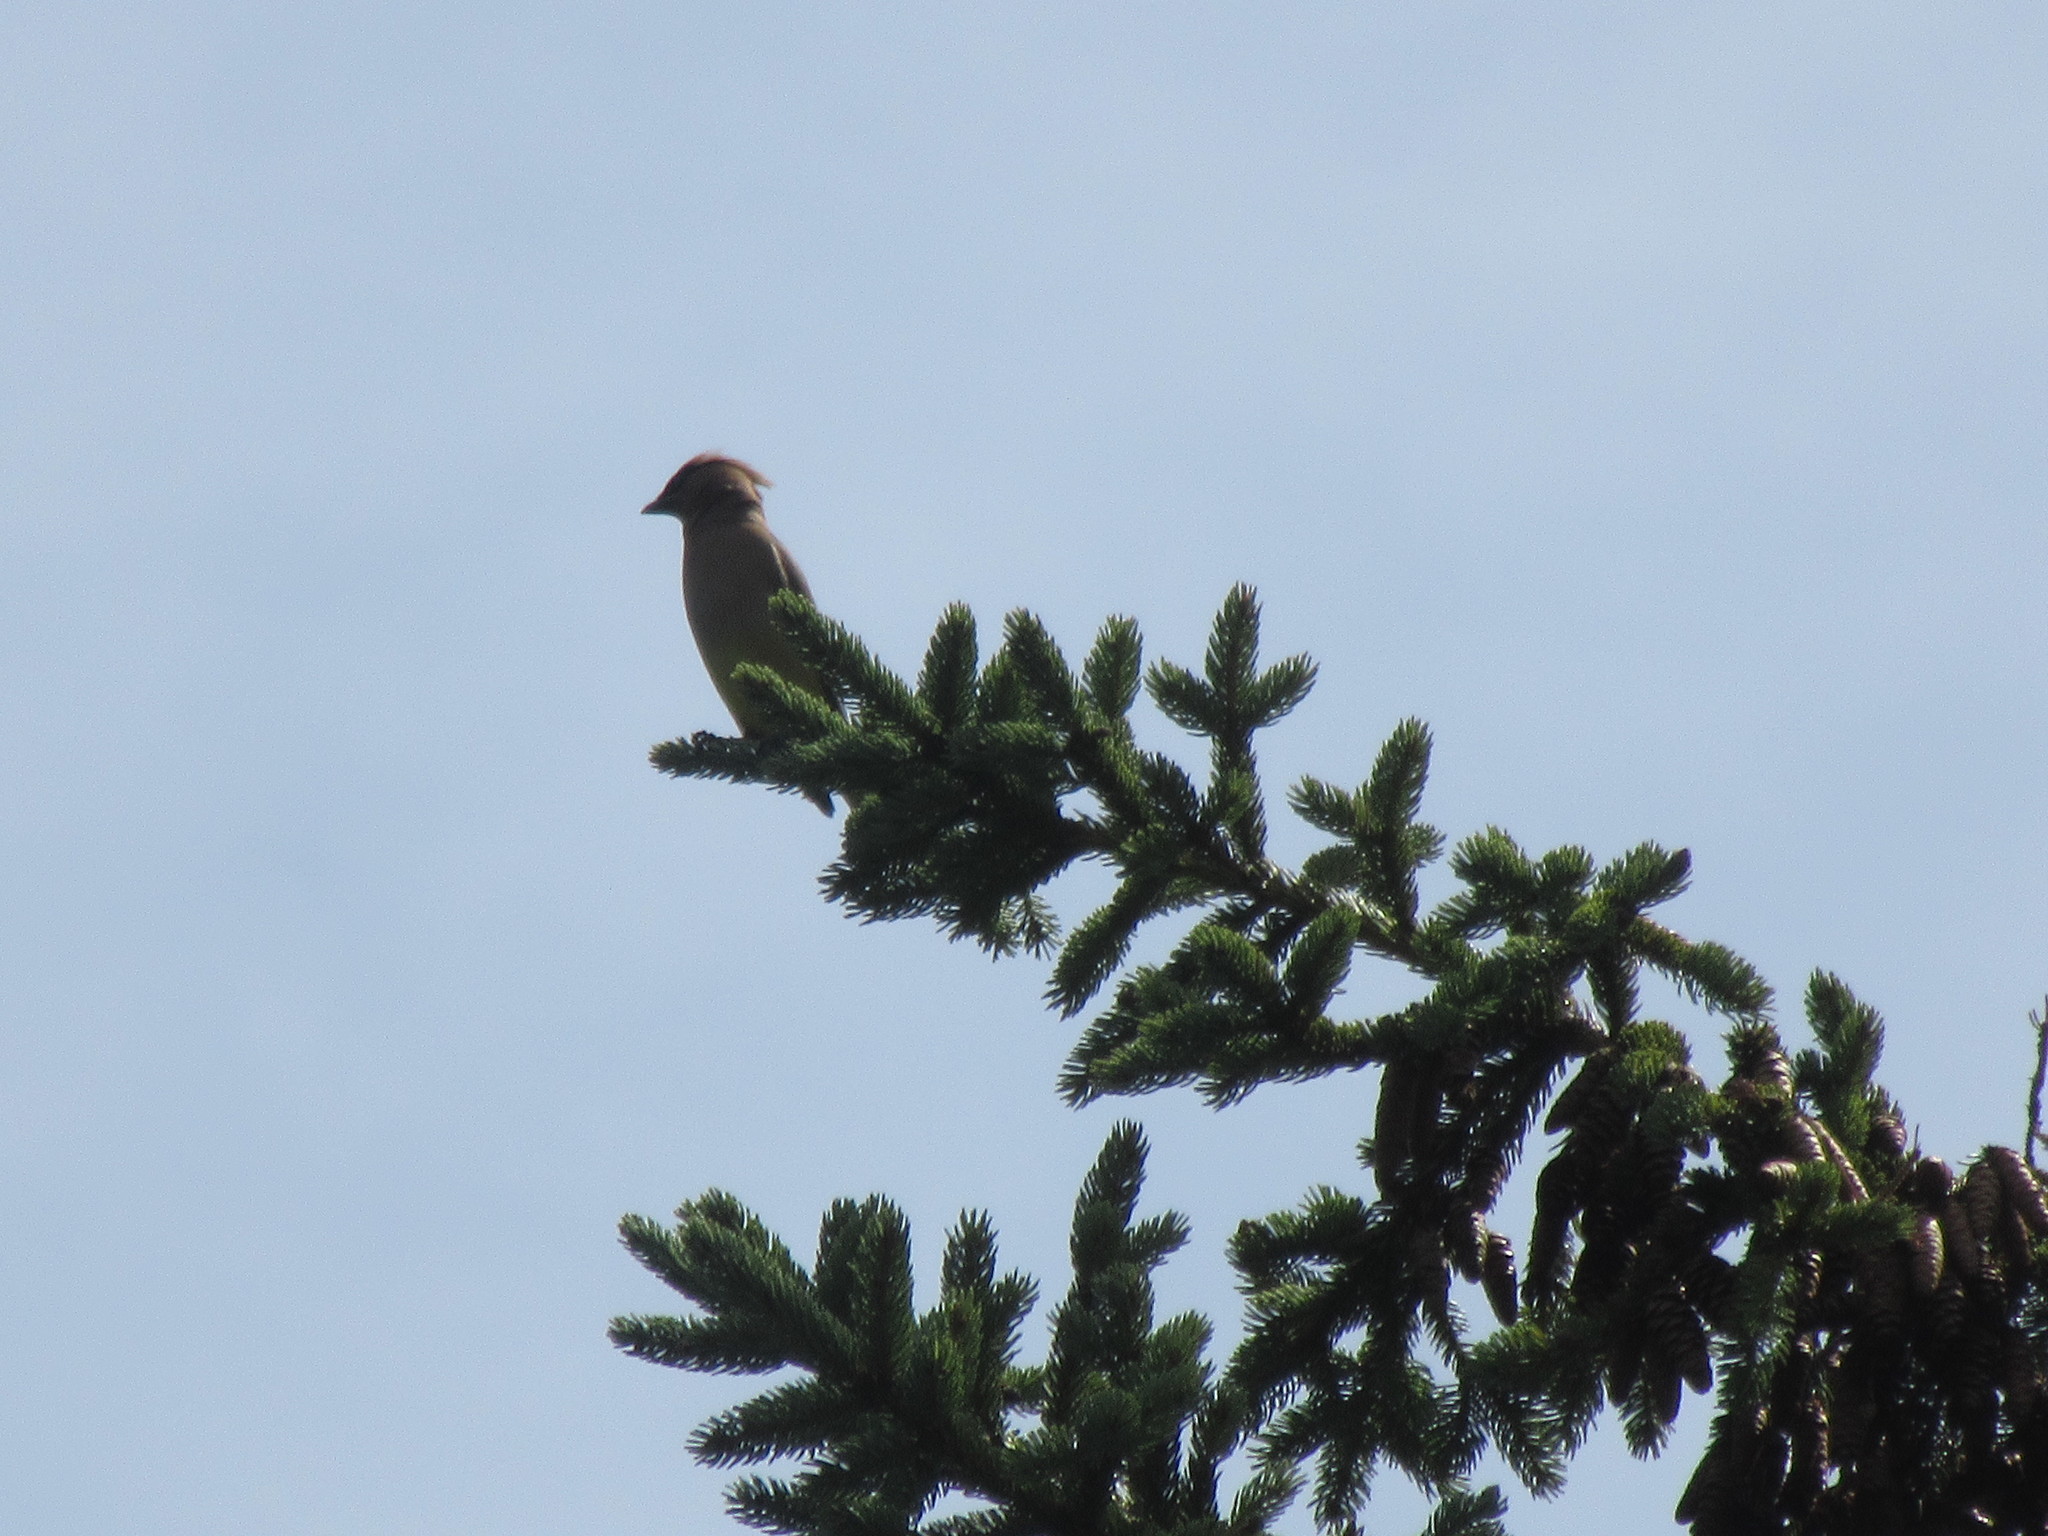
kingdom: Animalia
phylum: Chordata
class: Aves
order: Passeriformes
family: Bombycillidae
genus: Bombycilla
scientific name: Bombycilla cedrorum
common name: Cedar waxwing
